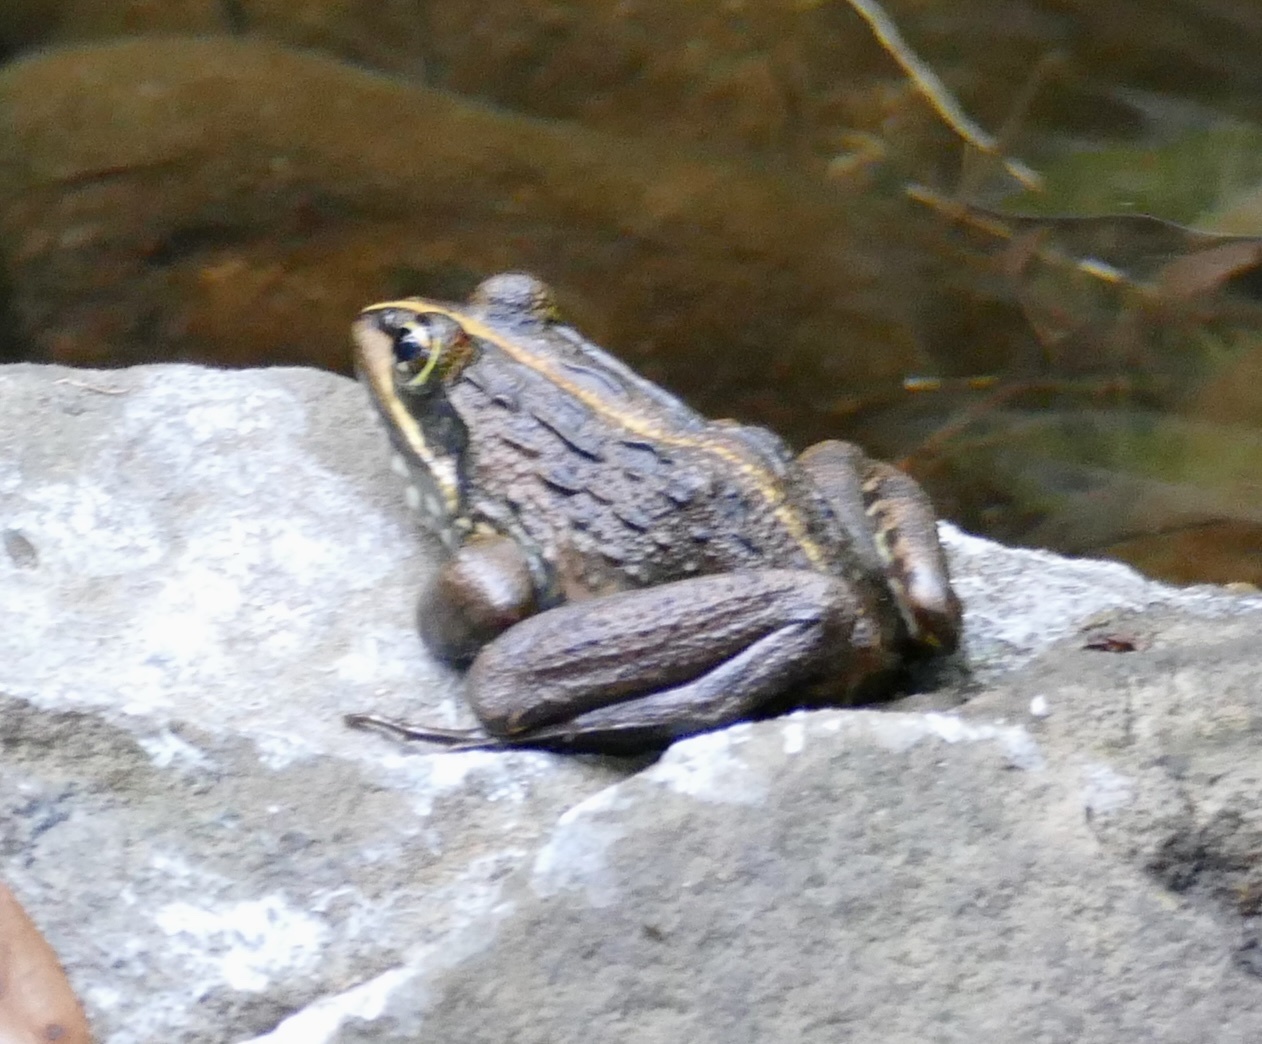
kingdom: Animalia
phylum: Chordata
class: Amphibia
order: Anura
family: Pyxicephalidae
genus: Amietia
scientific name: Amietia fuscigula
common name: Cape rana
